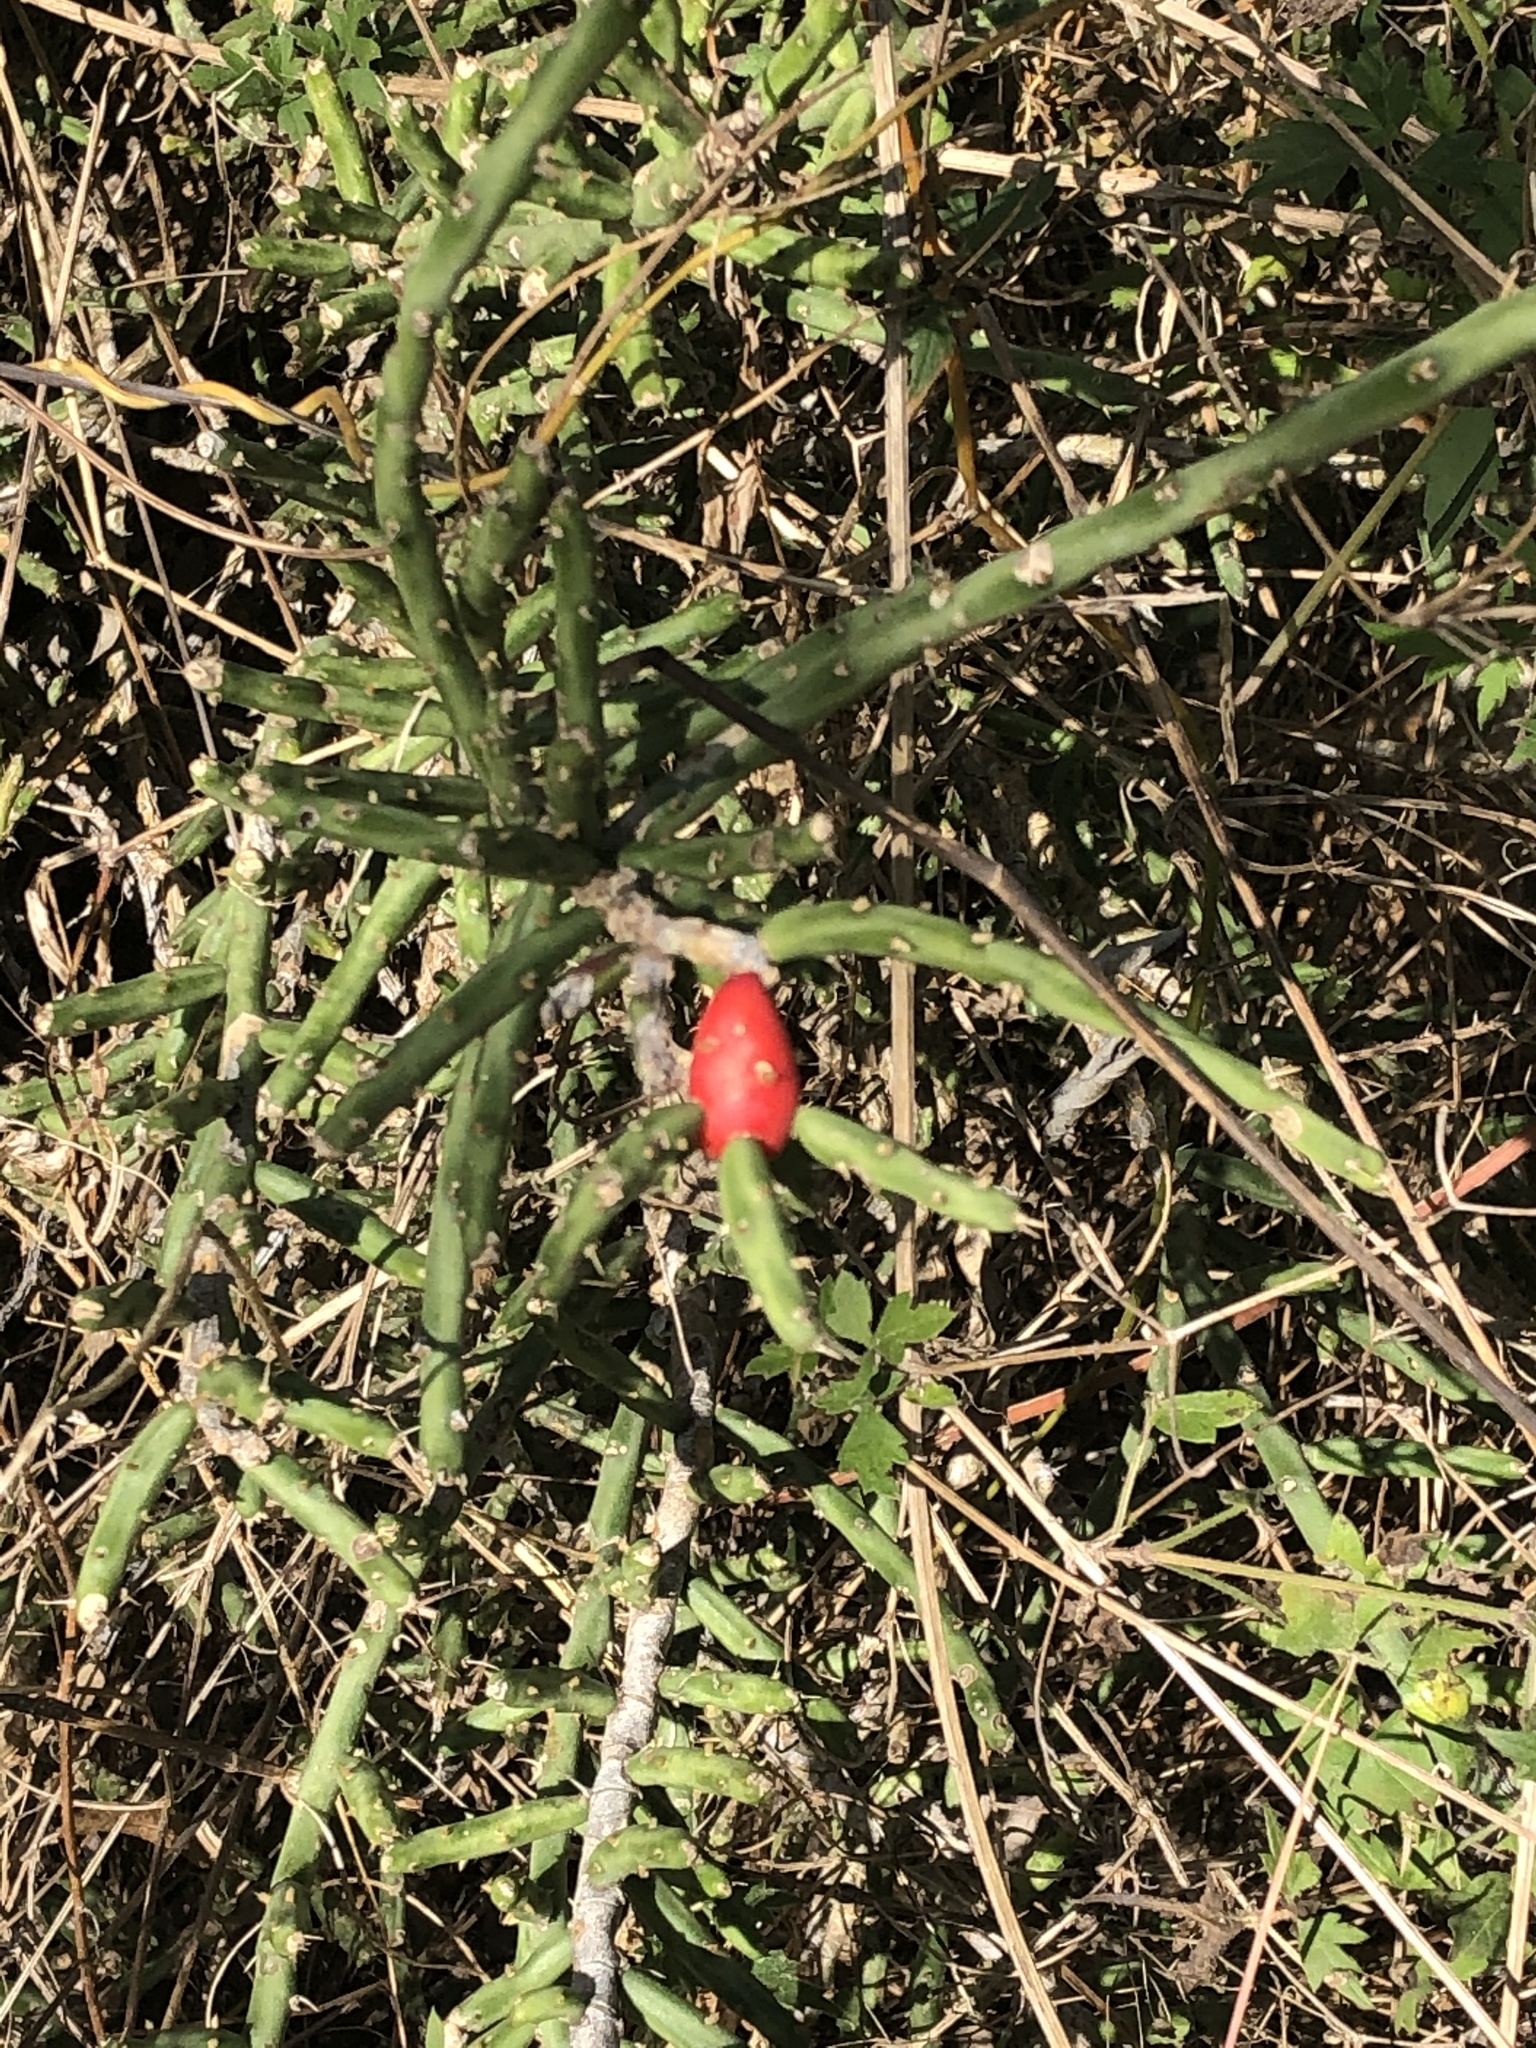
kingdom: Plantae
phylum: Tracheophyta
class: Magnoliopsida
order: Caryophyllales
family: Cactaceae
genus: Cylindropuntia
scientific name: Cylindropuntia leptocaulis
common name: Christmas cactus
